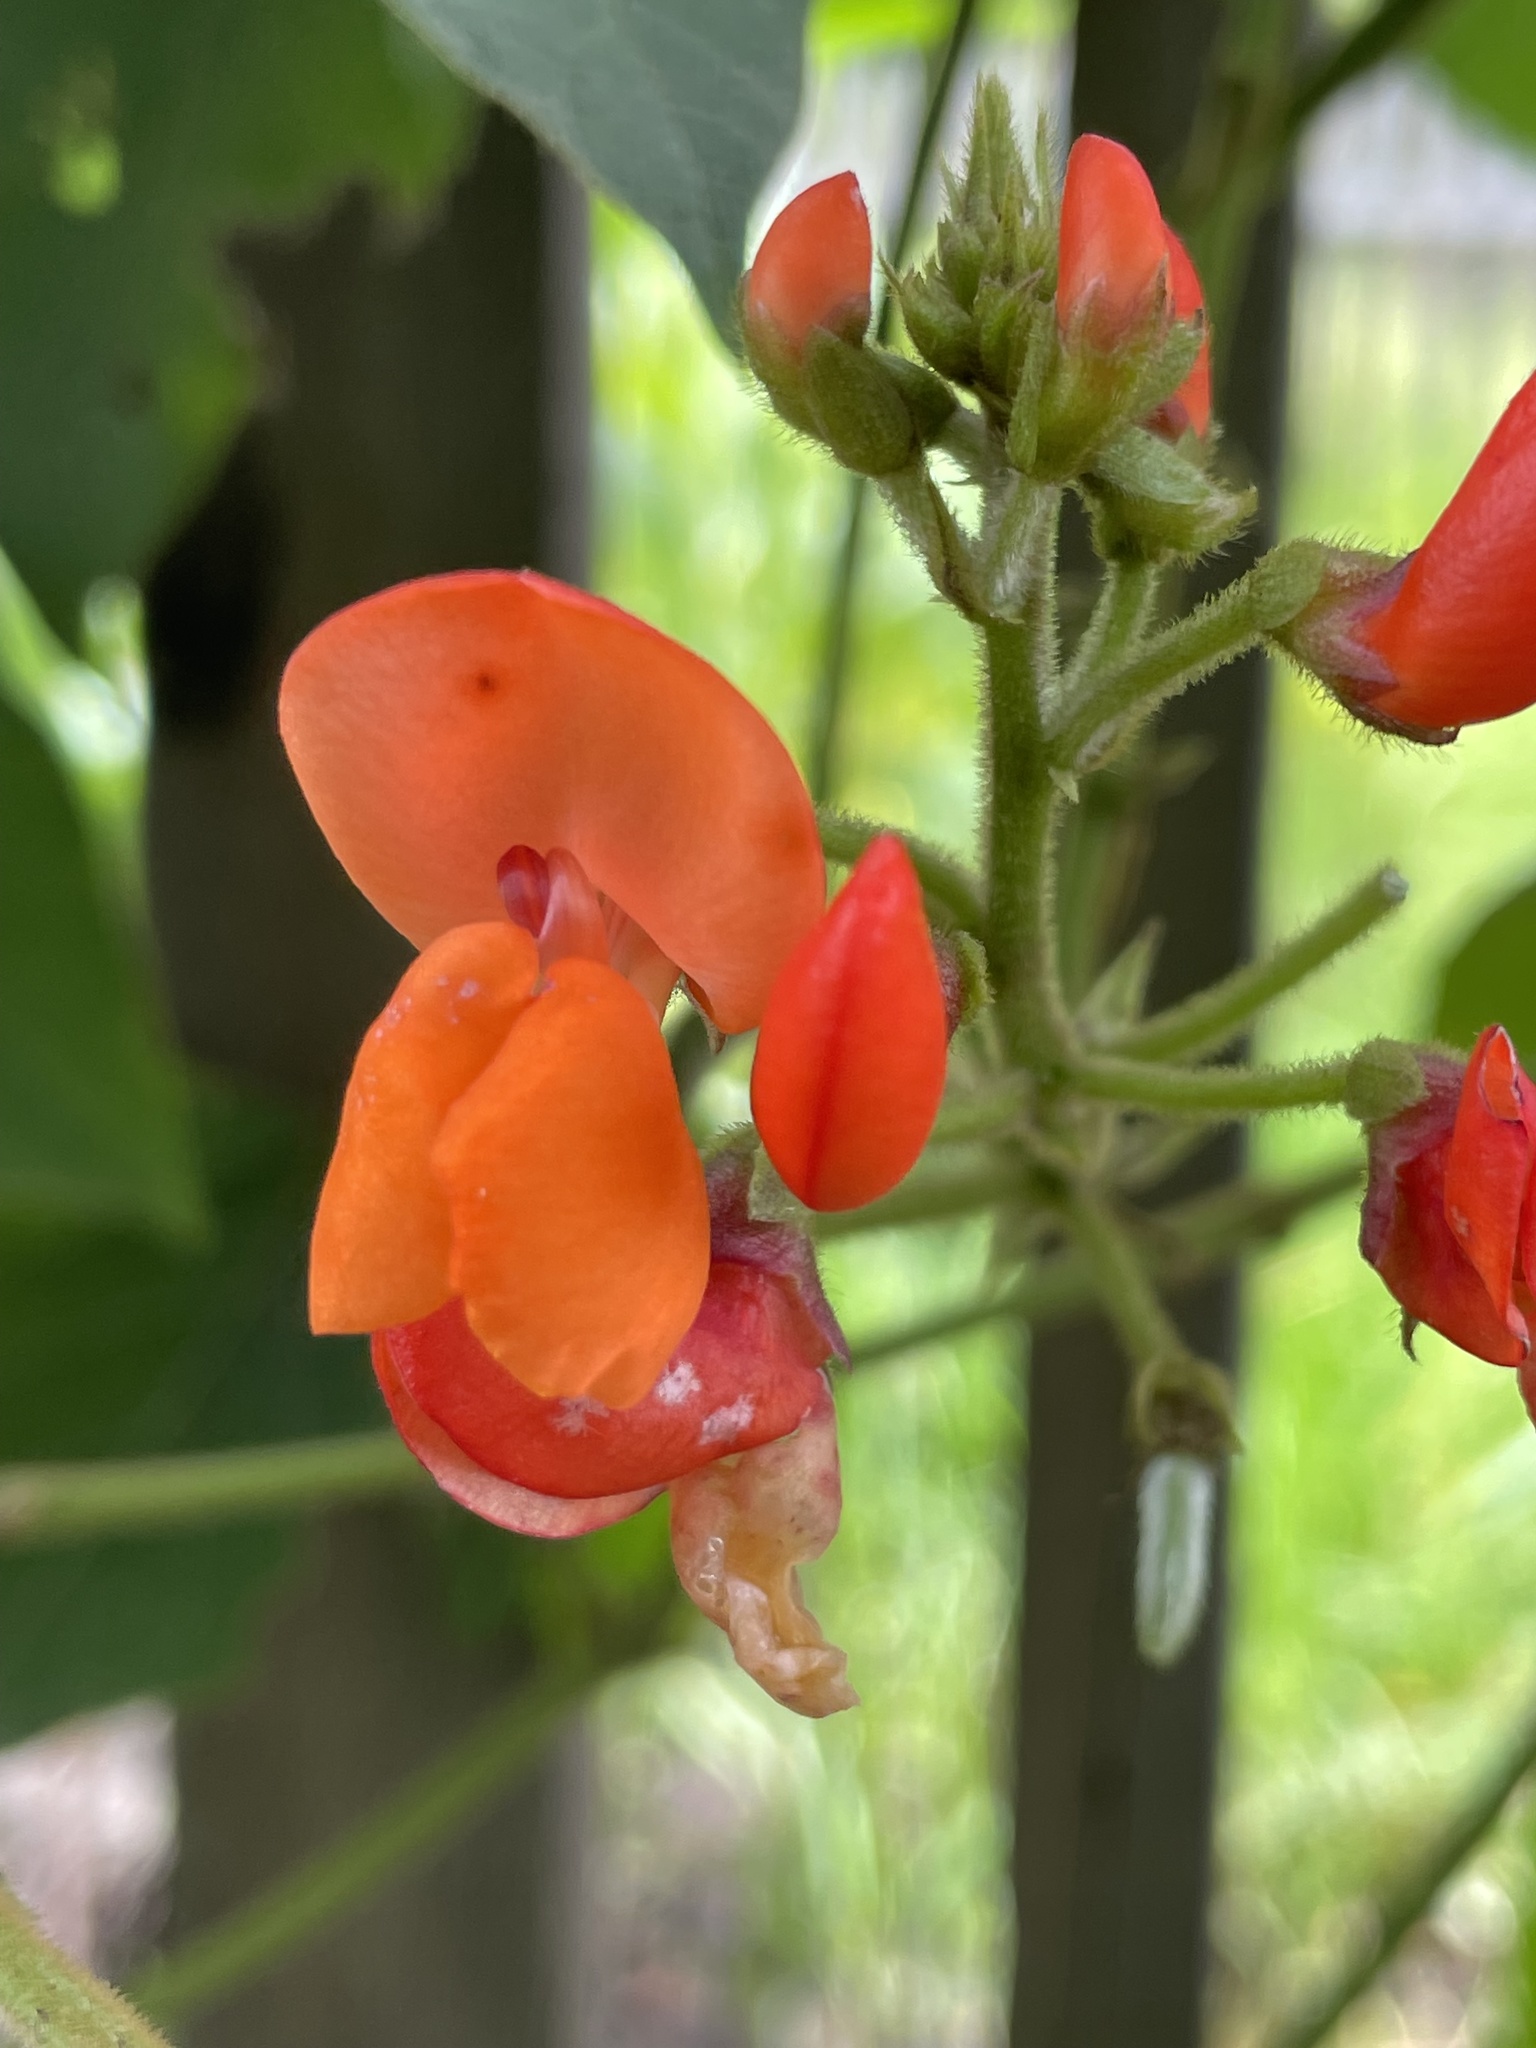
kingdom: Plantae
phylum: Tracheophyta
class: Magnoliopsida
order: Fabales
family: Fabaceae
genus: Phaseolus
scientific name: Phaseolus coccineus
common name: Runner bean
